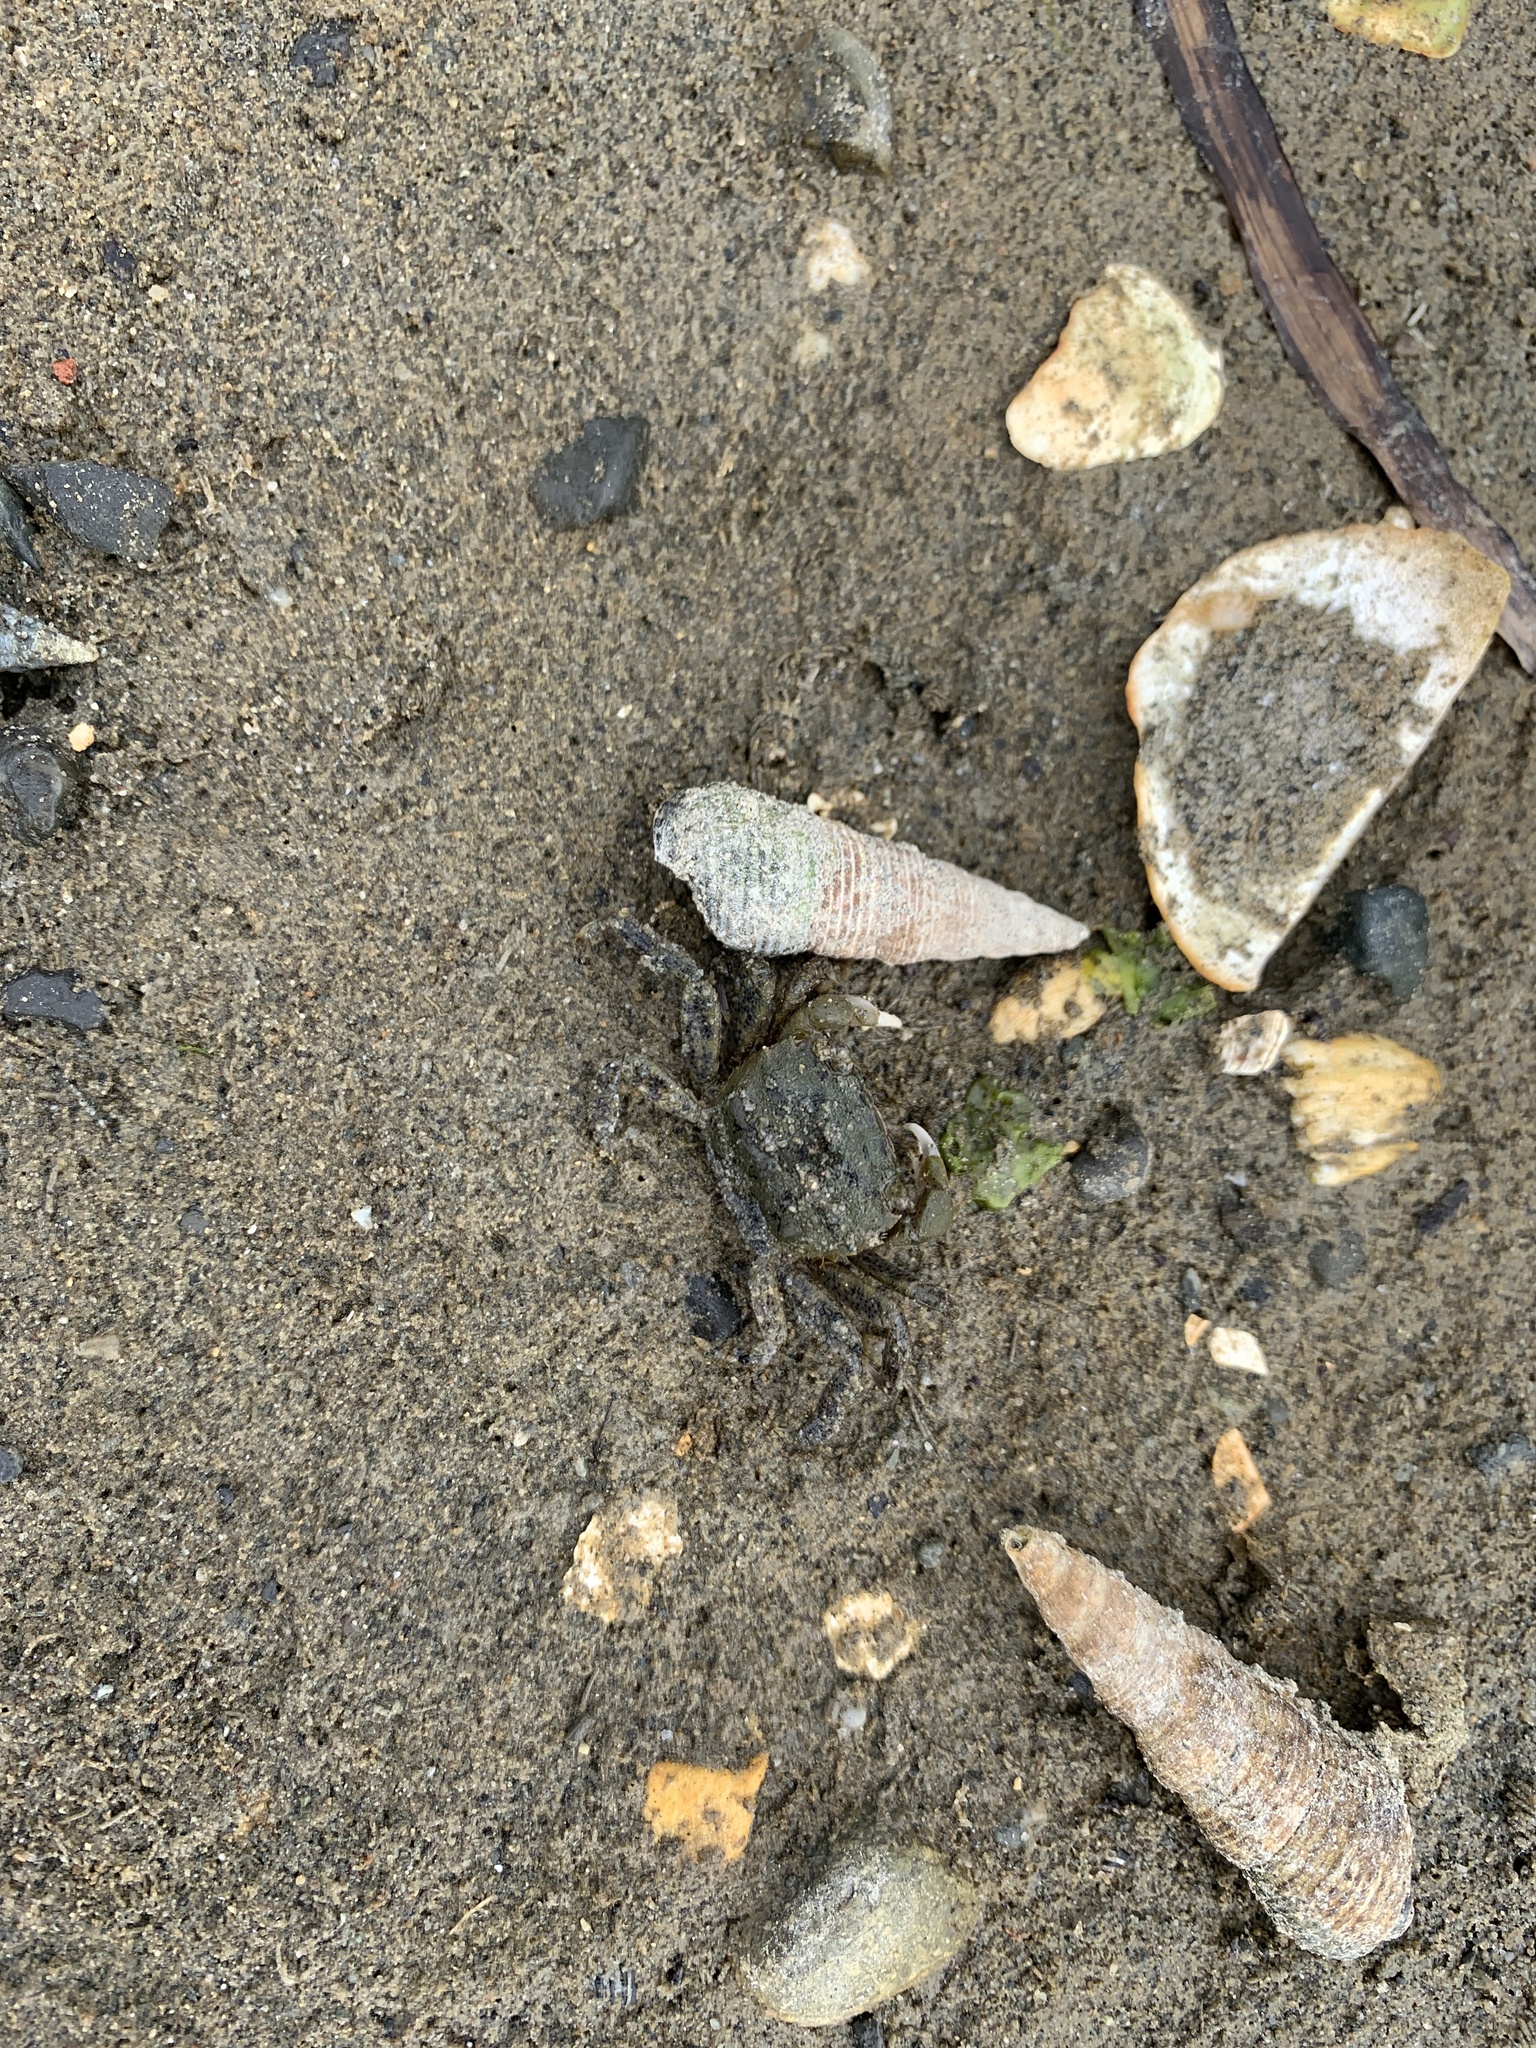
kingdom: Animalia
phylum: Arthropoda
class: Malacostraca
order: Decapoda
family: Varunidae
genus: Hemigrapsus
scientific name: Hemigrapsus oregonensis
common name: Yellow shore crab
